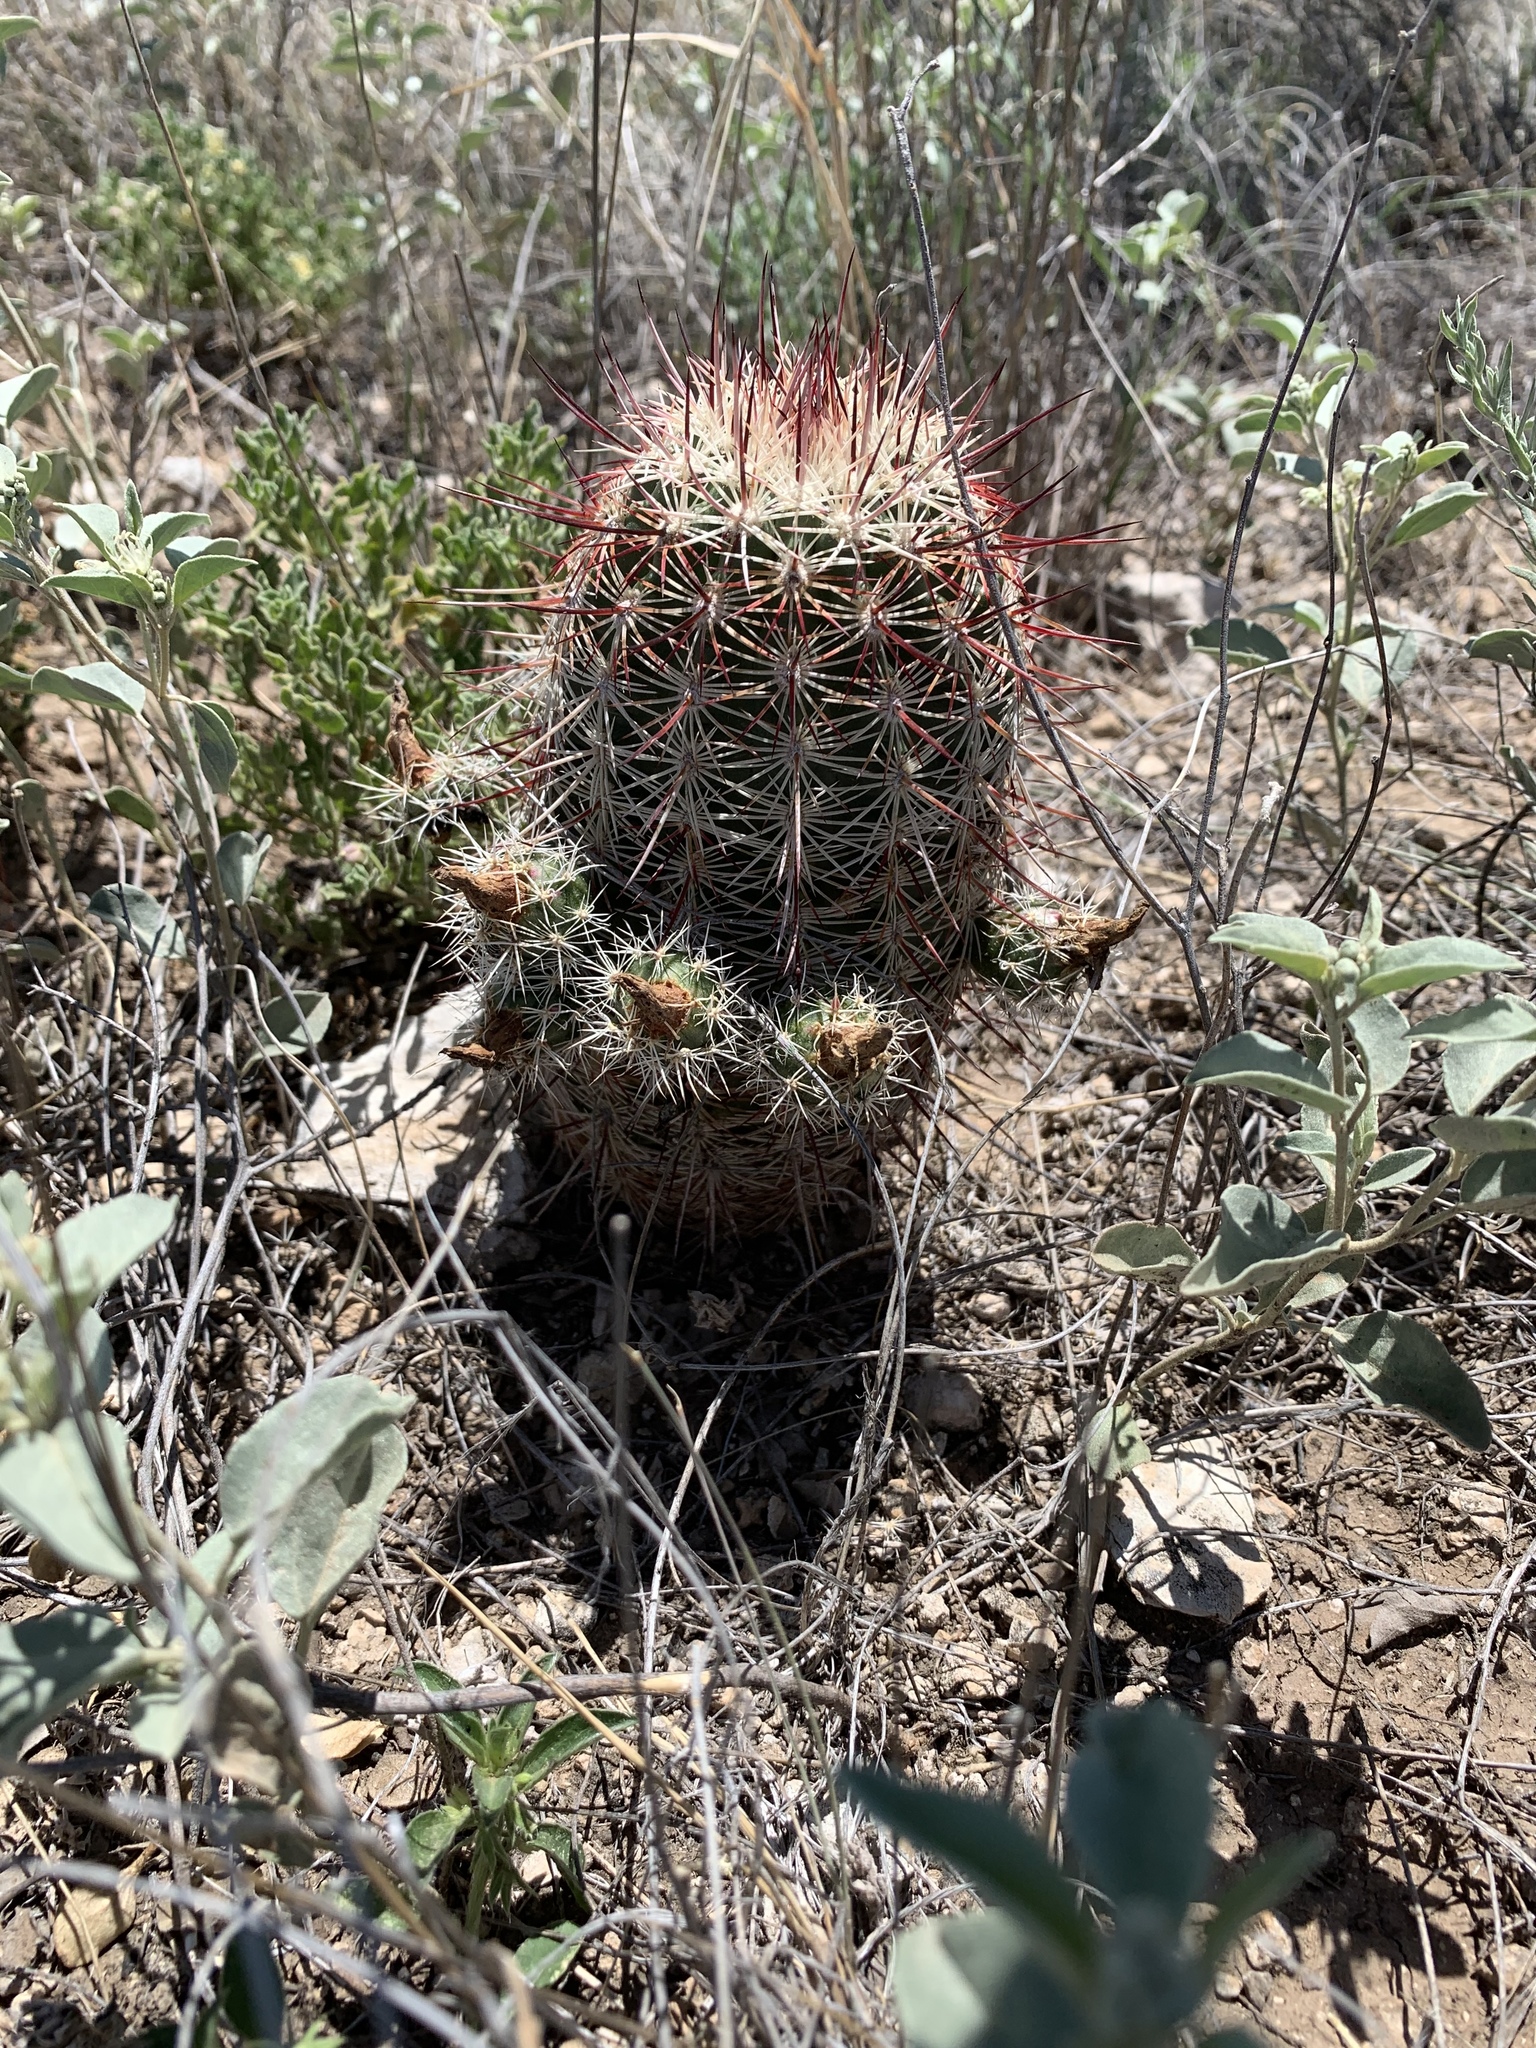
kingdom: Plantae
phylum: Tracheophyta
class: Magnoliopsida
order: Caryophyllales
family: Cactaceae
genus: Echinocereus
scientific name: Echinocereus viridiflorus
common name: Nylon hedgehog cactus
